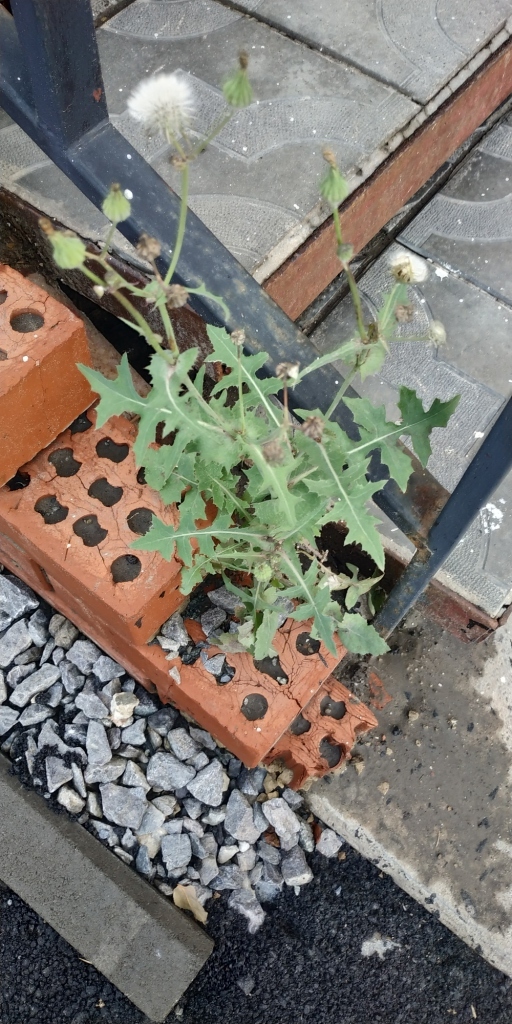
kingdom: Plantae
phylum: Tracheophyta
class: Magnoliopsida
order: Asterales
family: Asteraceae
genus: Sonchus
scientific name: Sonchus oleraceus
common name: Common sowthistle
